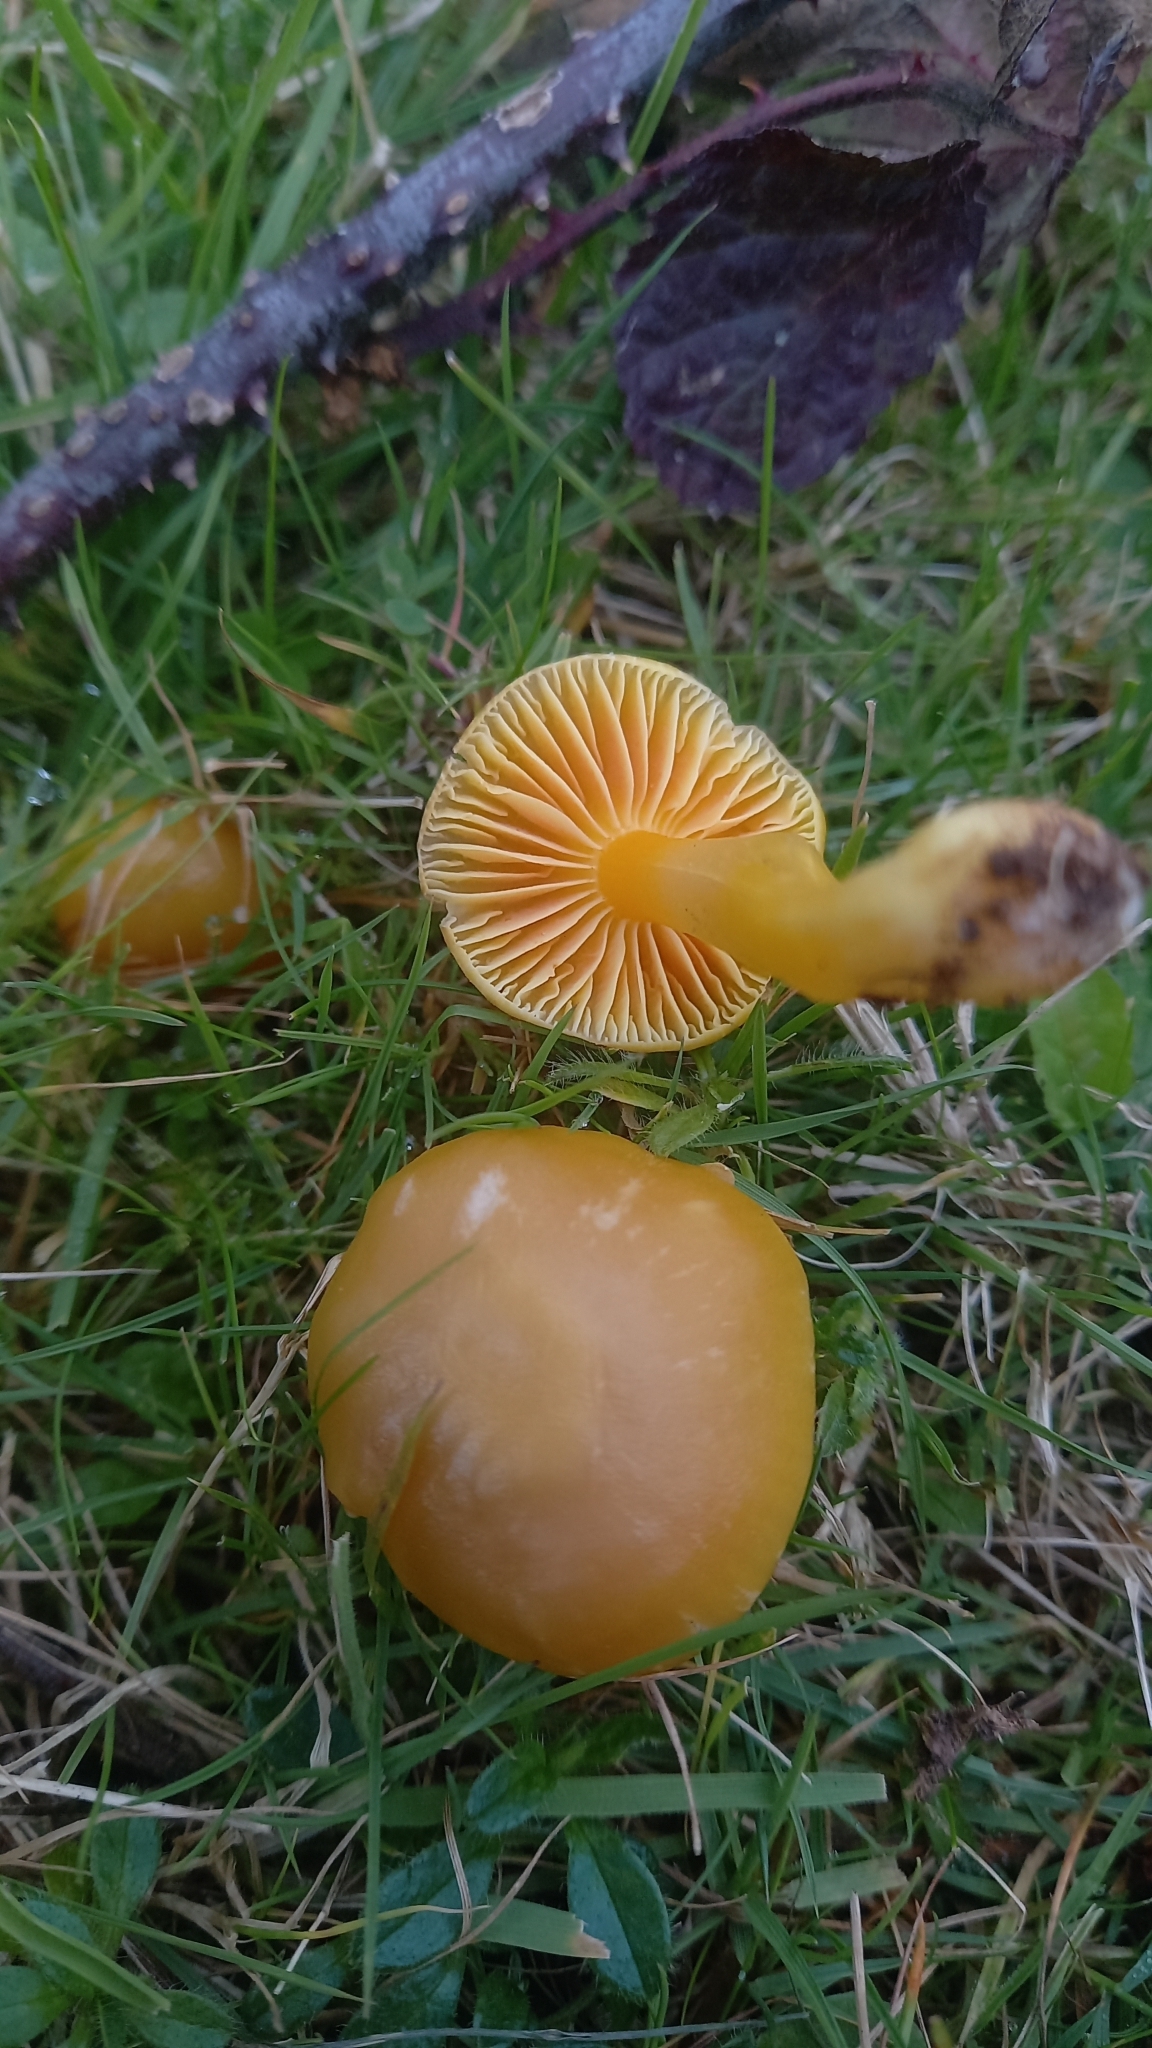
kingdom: Fungi
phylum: Basidiomycota
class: Agaricomycetes
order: Agaricales
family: Hygrophoraceae
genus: Hygrocybe
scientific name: Hygrocybe quieta
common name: Oily waxcap
